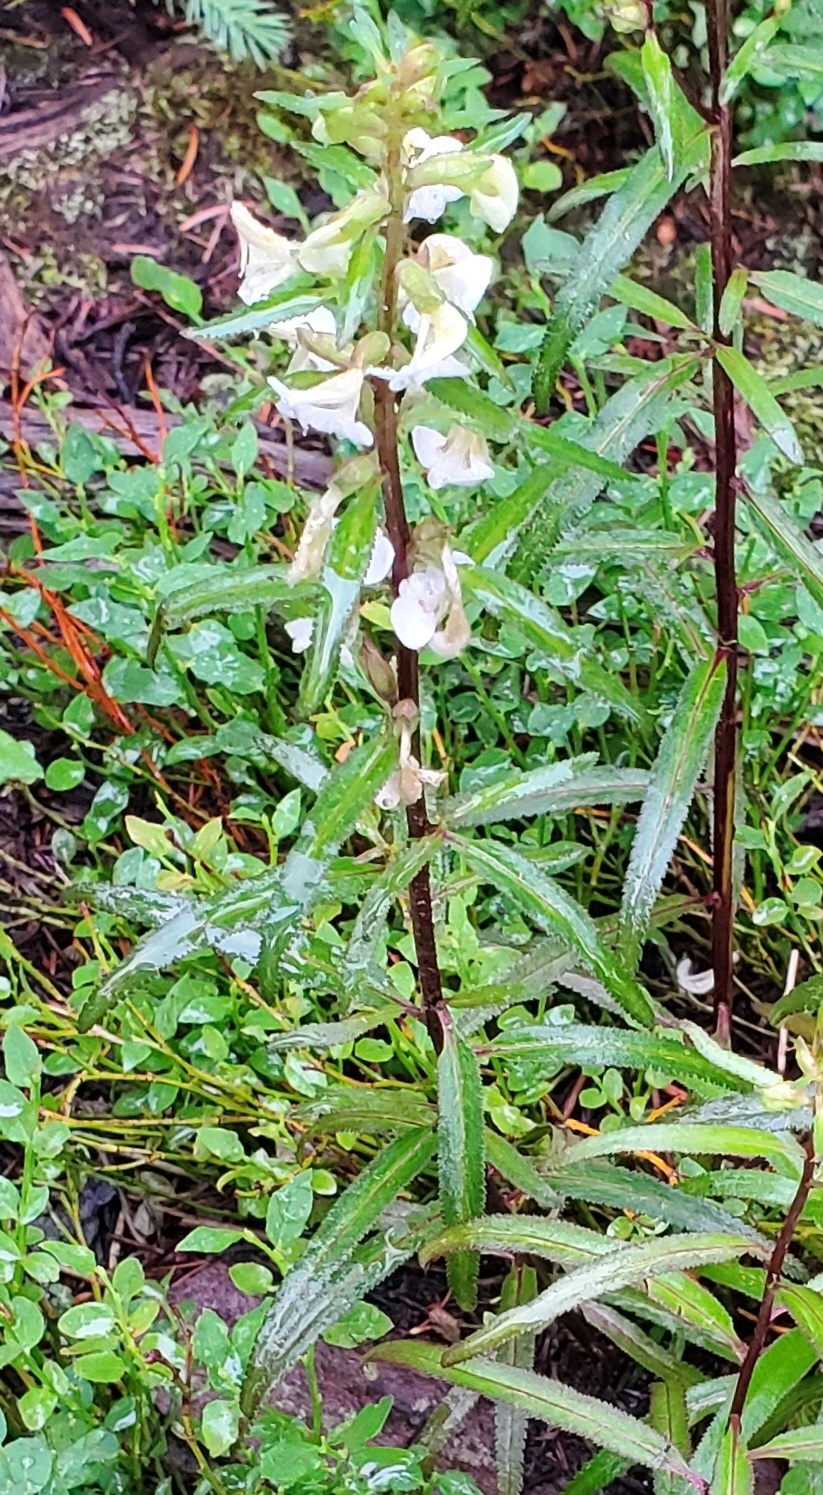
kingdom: Plantae
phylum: Tracheophyta
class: Magnoliopsida
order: Lamiales
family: Orobanchaceae
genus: Pedicularis
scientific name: Pedicularis racemosa
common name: Leafy lousewort
